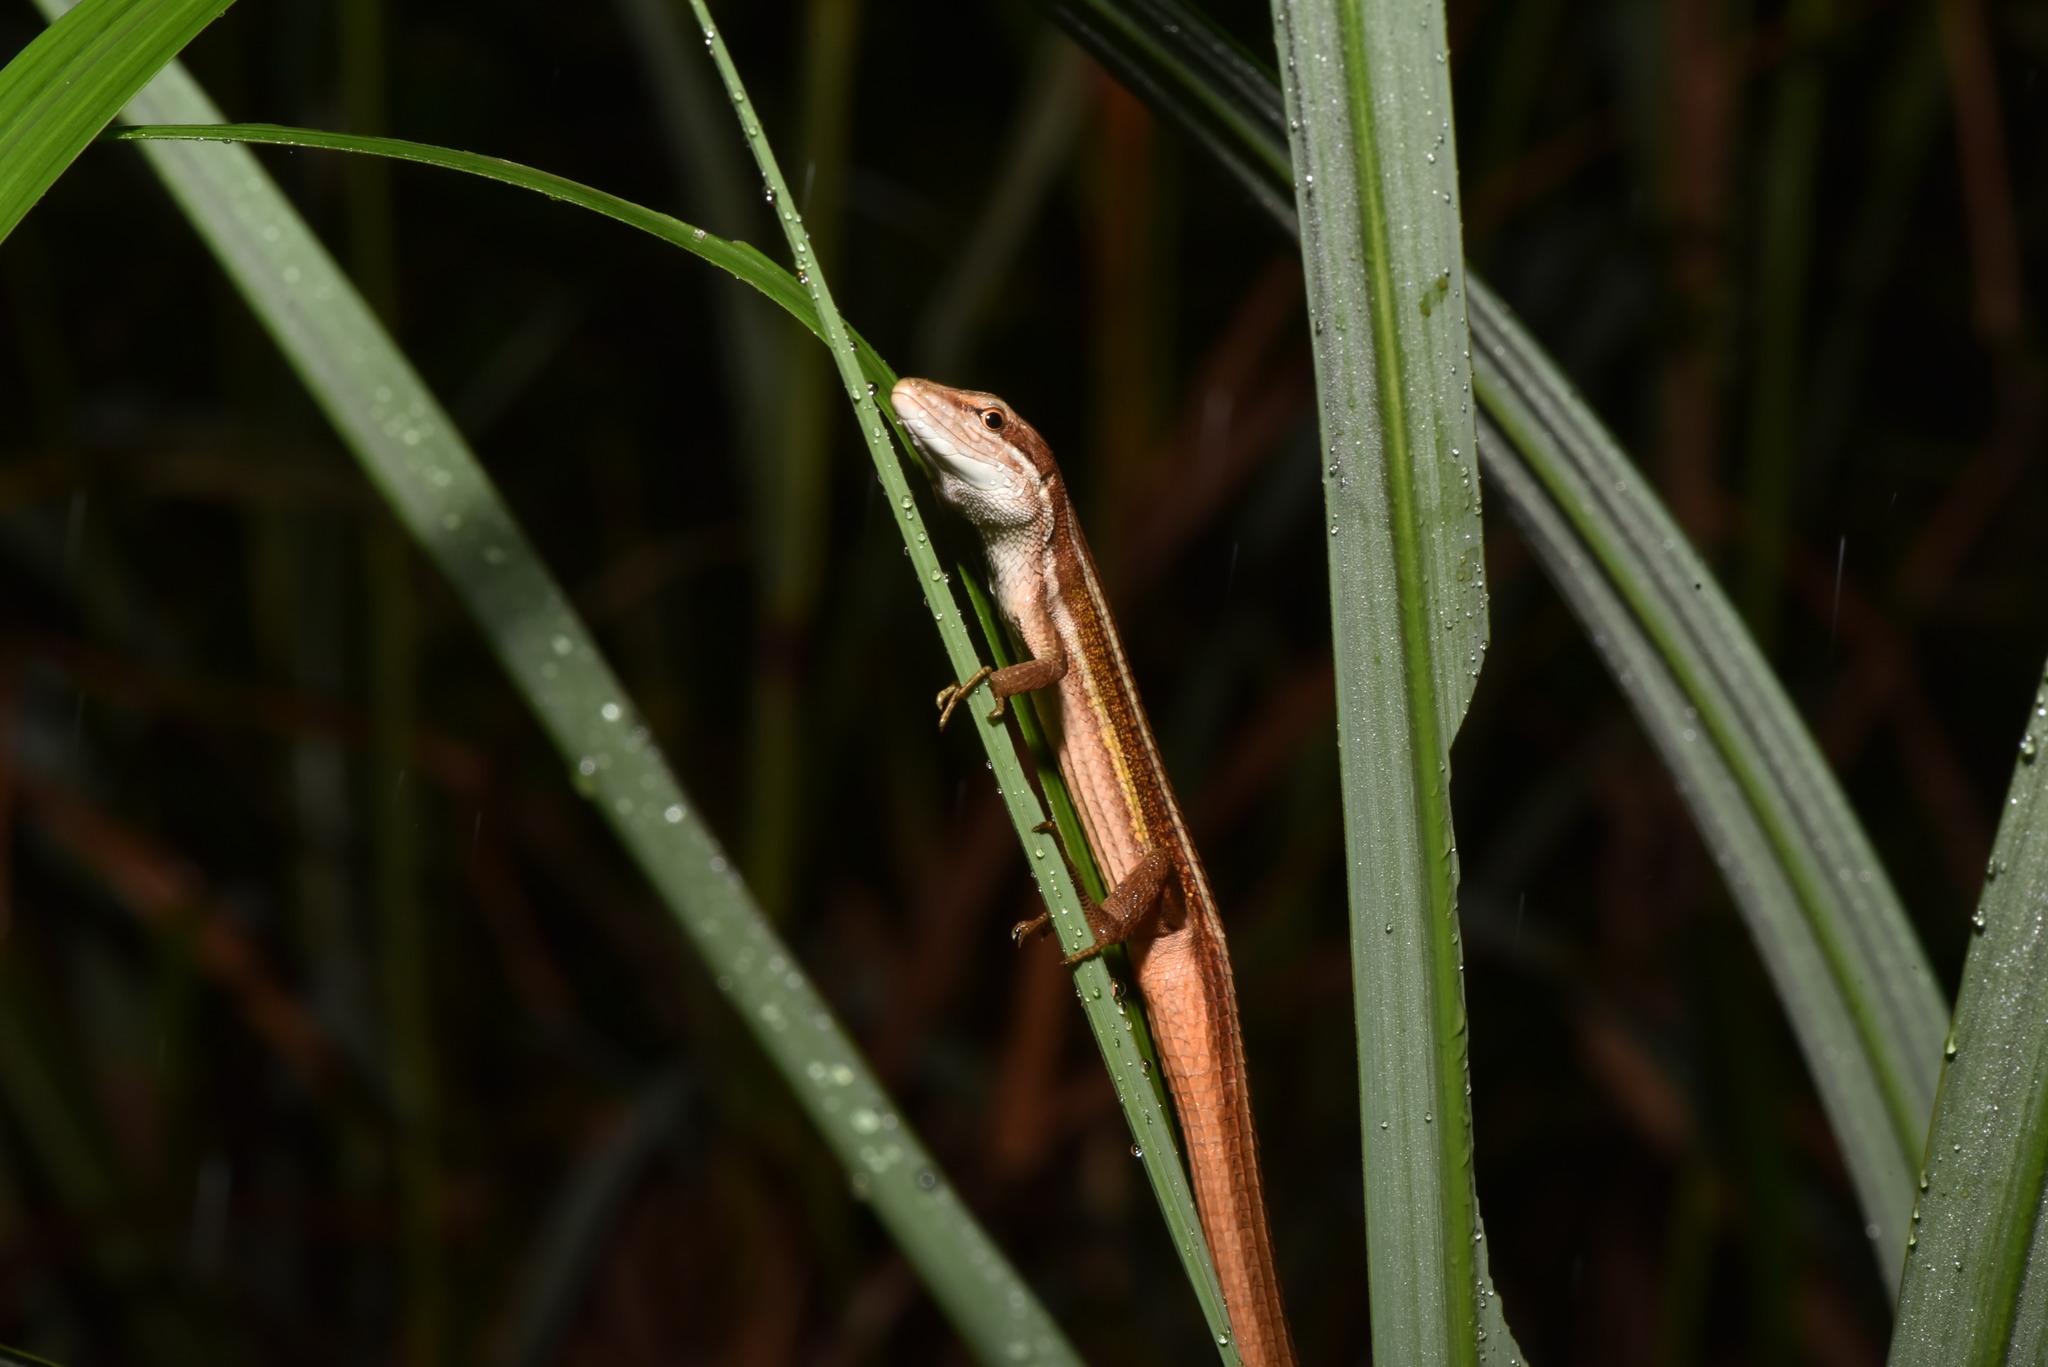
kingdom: Animalia
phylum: Chordata
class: Squamata
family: Lacertidae
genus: Takydromus
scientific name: Takydromus viridipunctatus
